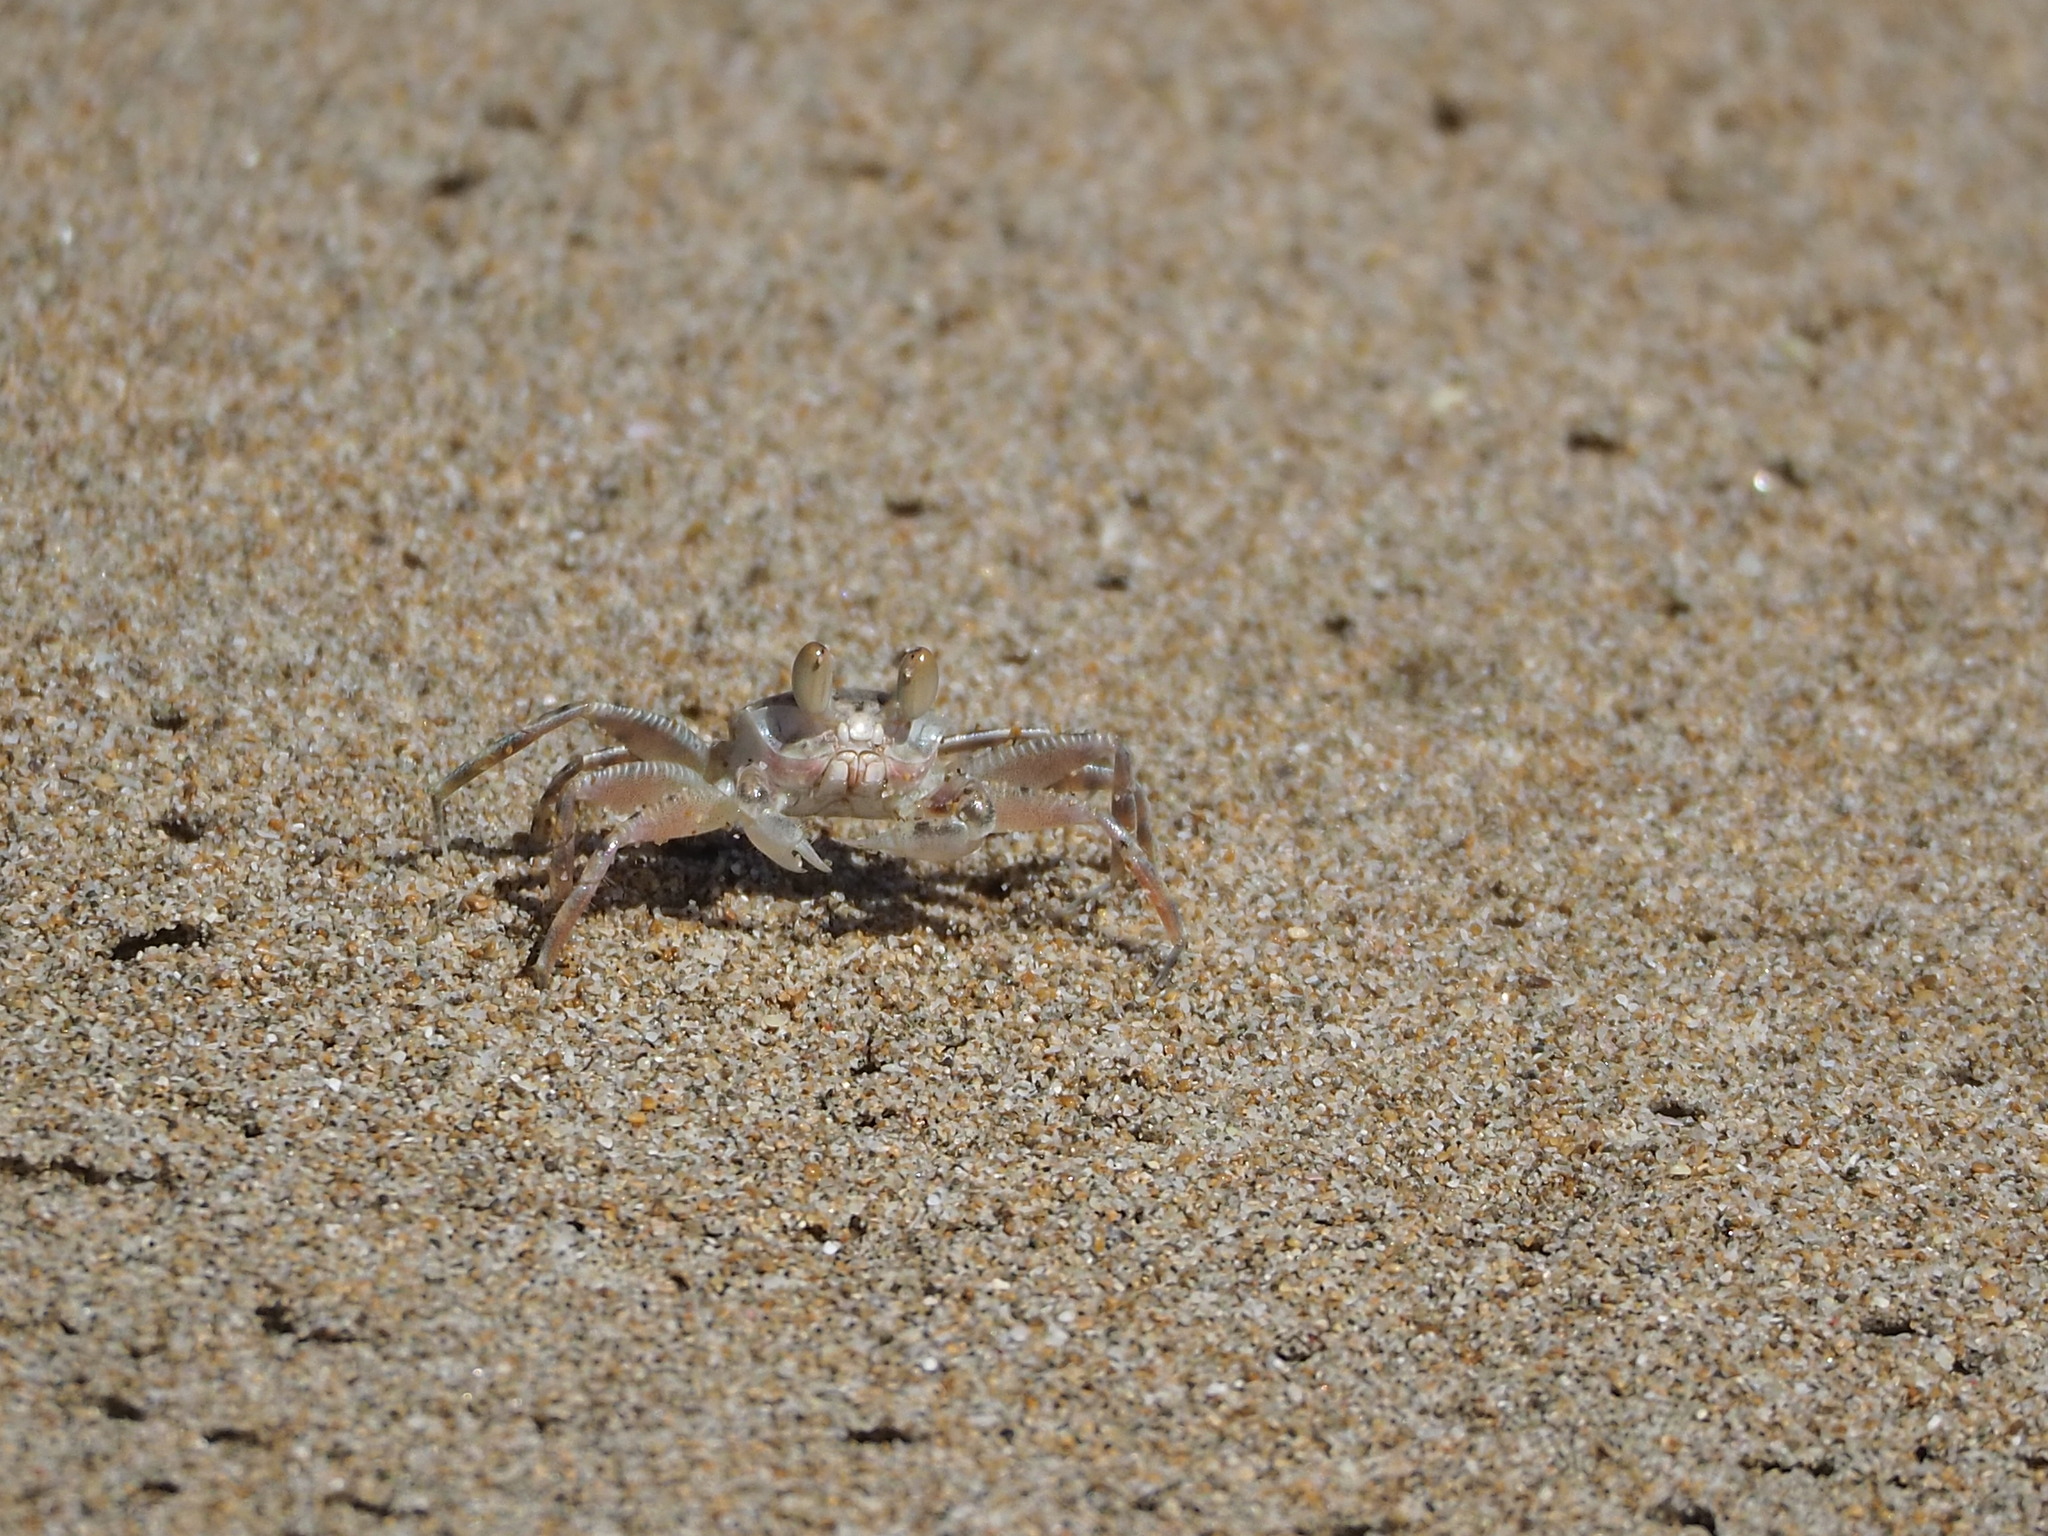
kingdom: Animalia
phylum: Arthropoda
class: Malacostraca
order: Decapoda
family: Ocypodidae
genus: Ocypode
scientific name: Ocypode ceratophthalmus
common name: Indo-pacific ghost crab
